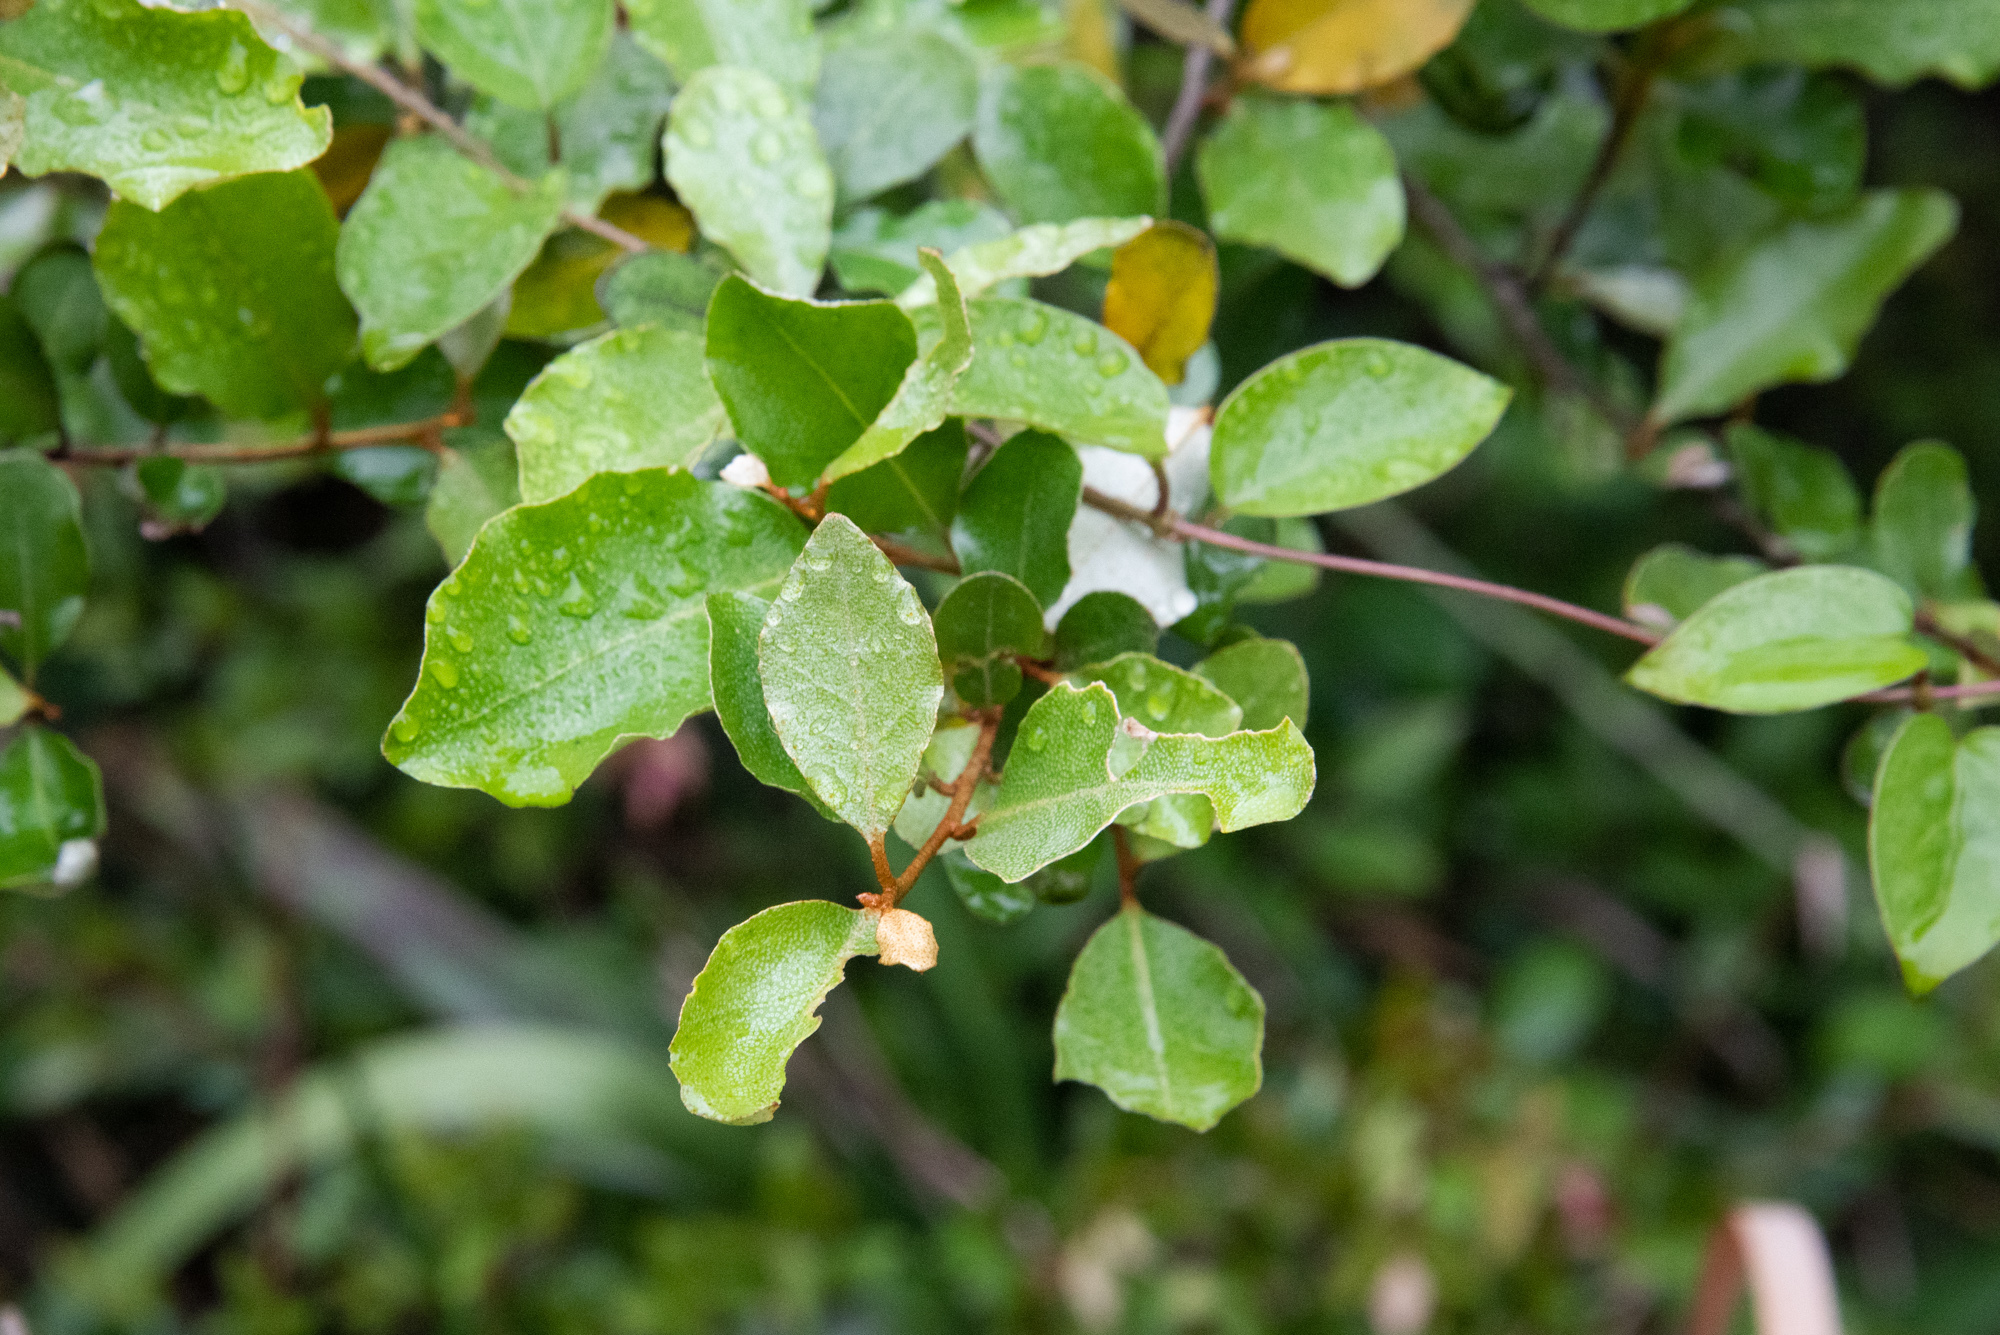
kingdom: Plantae
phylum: Tracheophyta
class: Magnoliopsida
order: Rosales
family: Elaeagnaceae
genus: Elaeagnus
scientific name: Elaeagnus oldhamii
